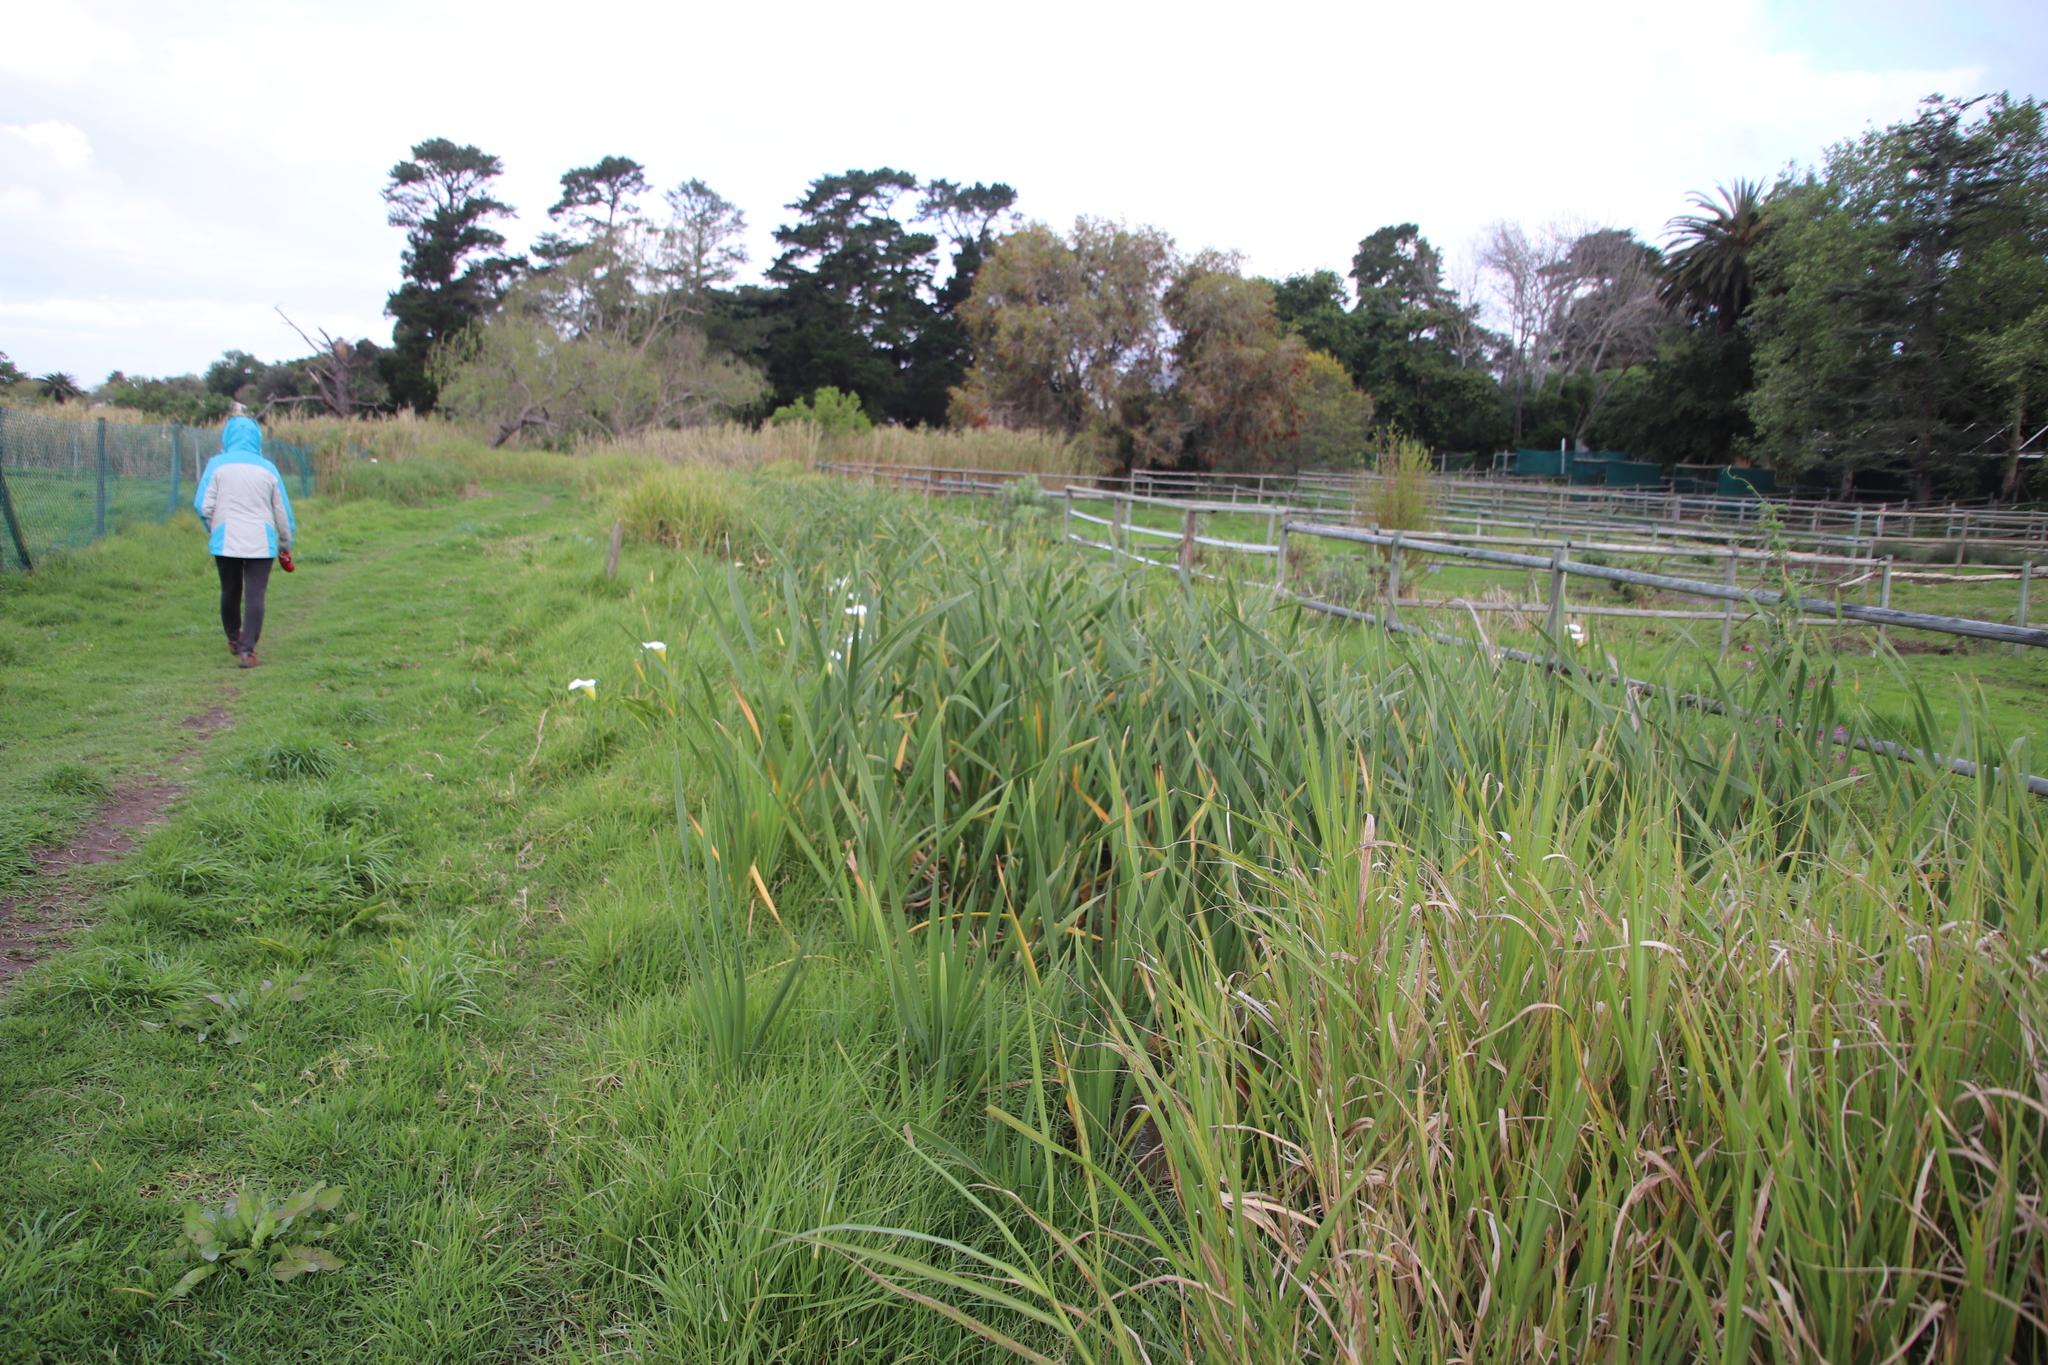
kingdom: Plantae
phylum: Tracheophyta
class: Liliopsida
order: Poales
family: Typhaceae
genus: Typha
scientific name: Typha capensis
